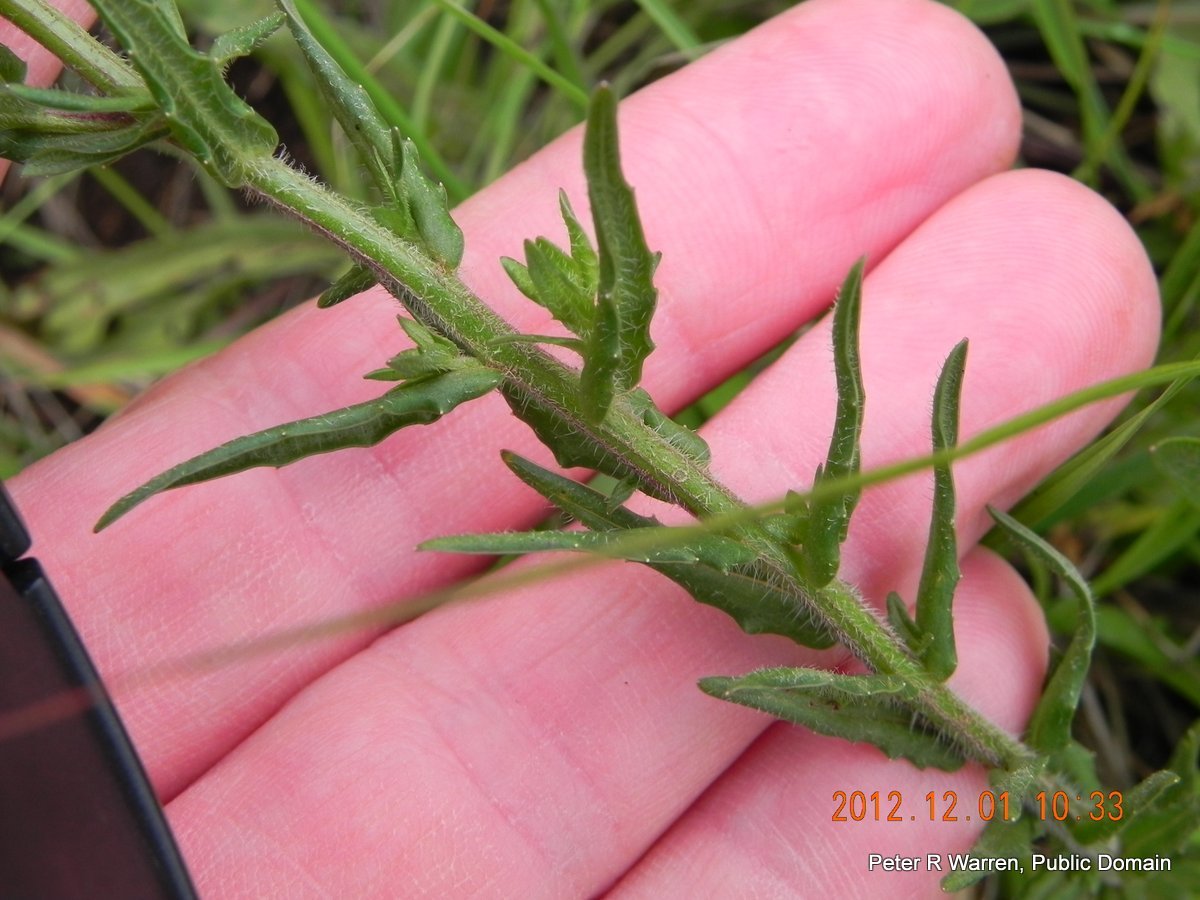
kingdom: Plantae
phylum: Tracheophyta
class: Magnoliopsida
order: Asterales
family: Campanulaceae
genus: Wahlenbergia
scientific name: Wahlenbergia cuspidata
